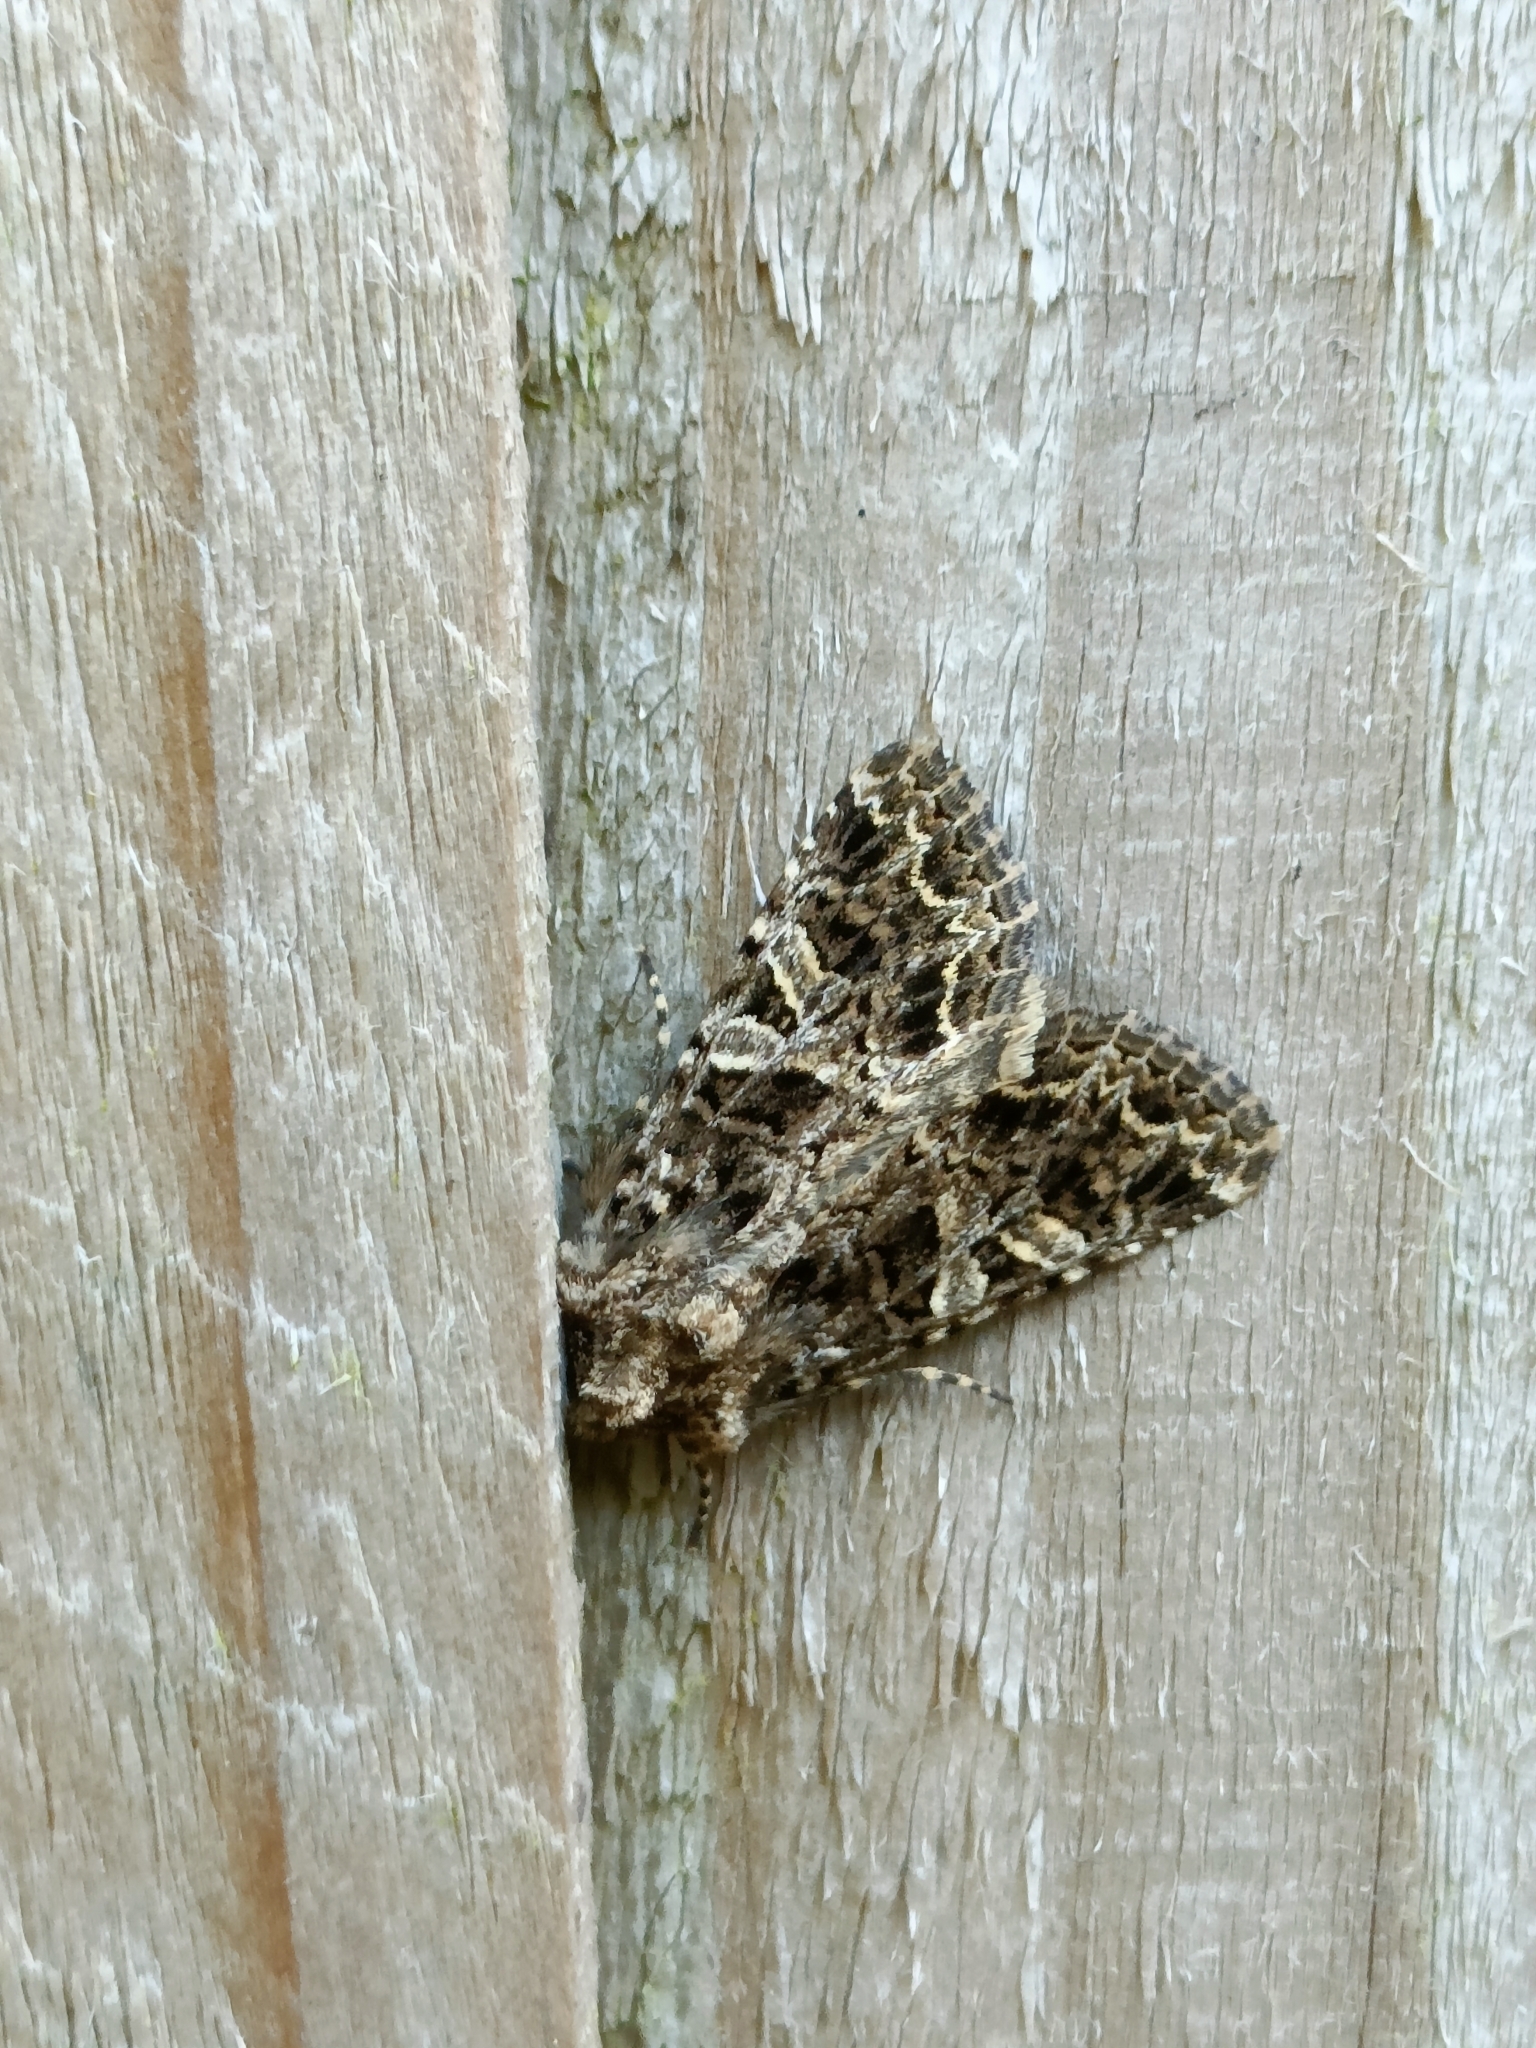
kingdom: Animalia
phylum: Arthropoda
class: Insecta
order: Lepidoptera
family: Noctuidae
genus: Hadena
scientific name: Hadena bicruris
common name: Lychnis
